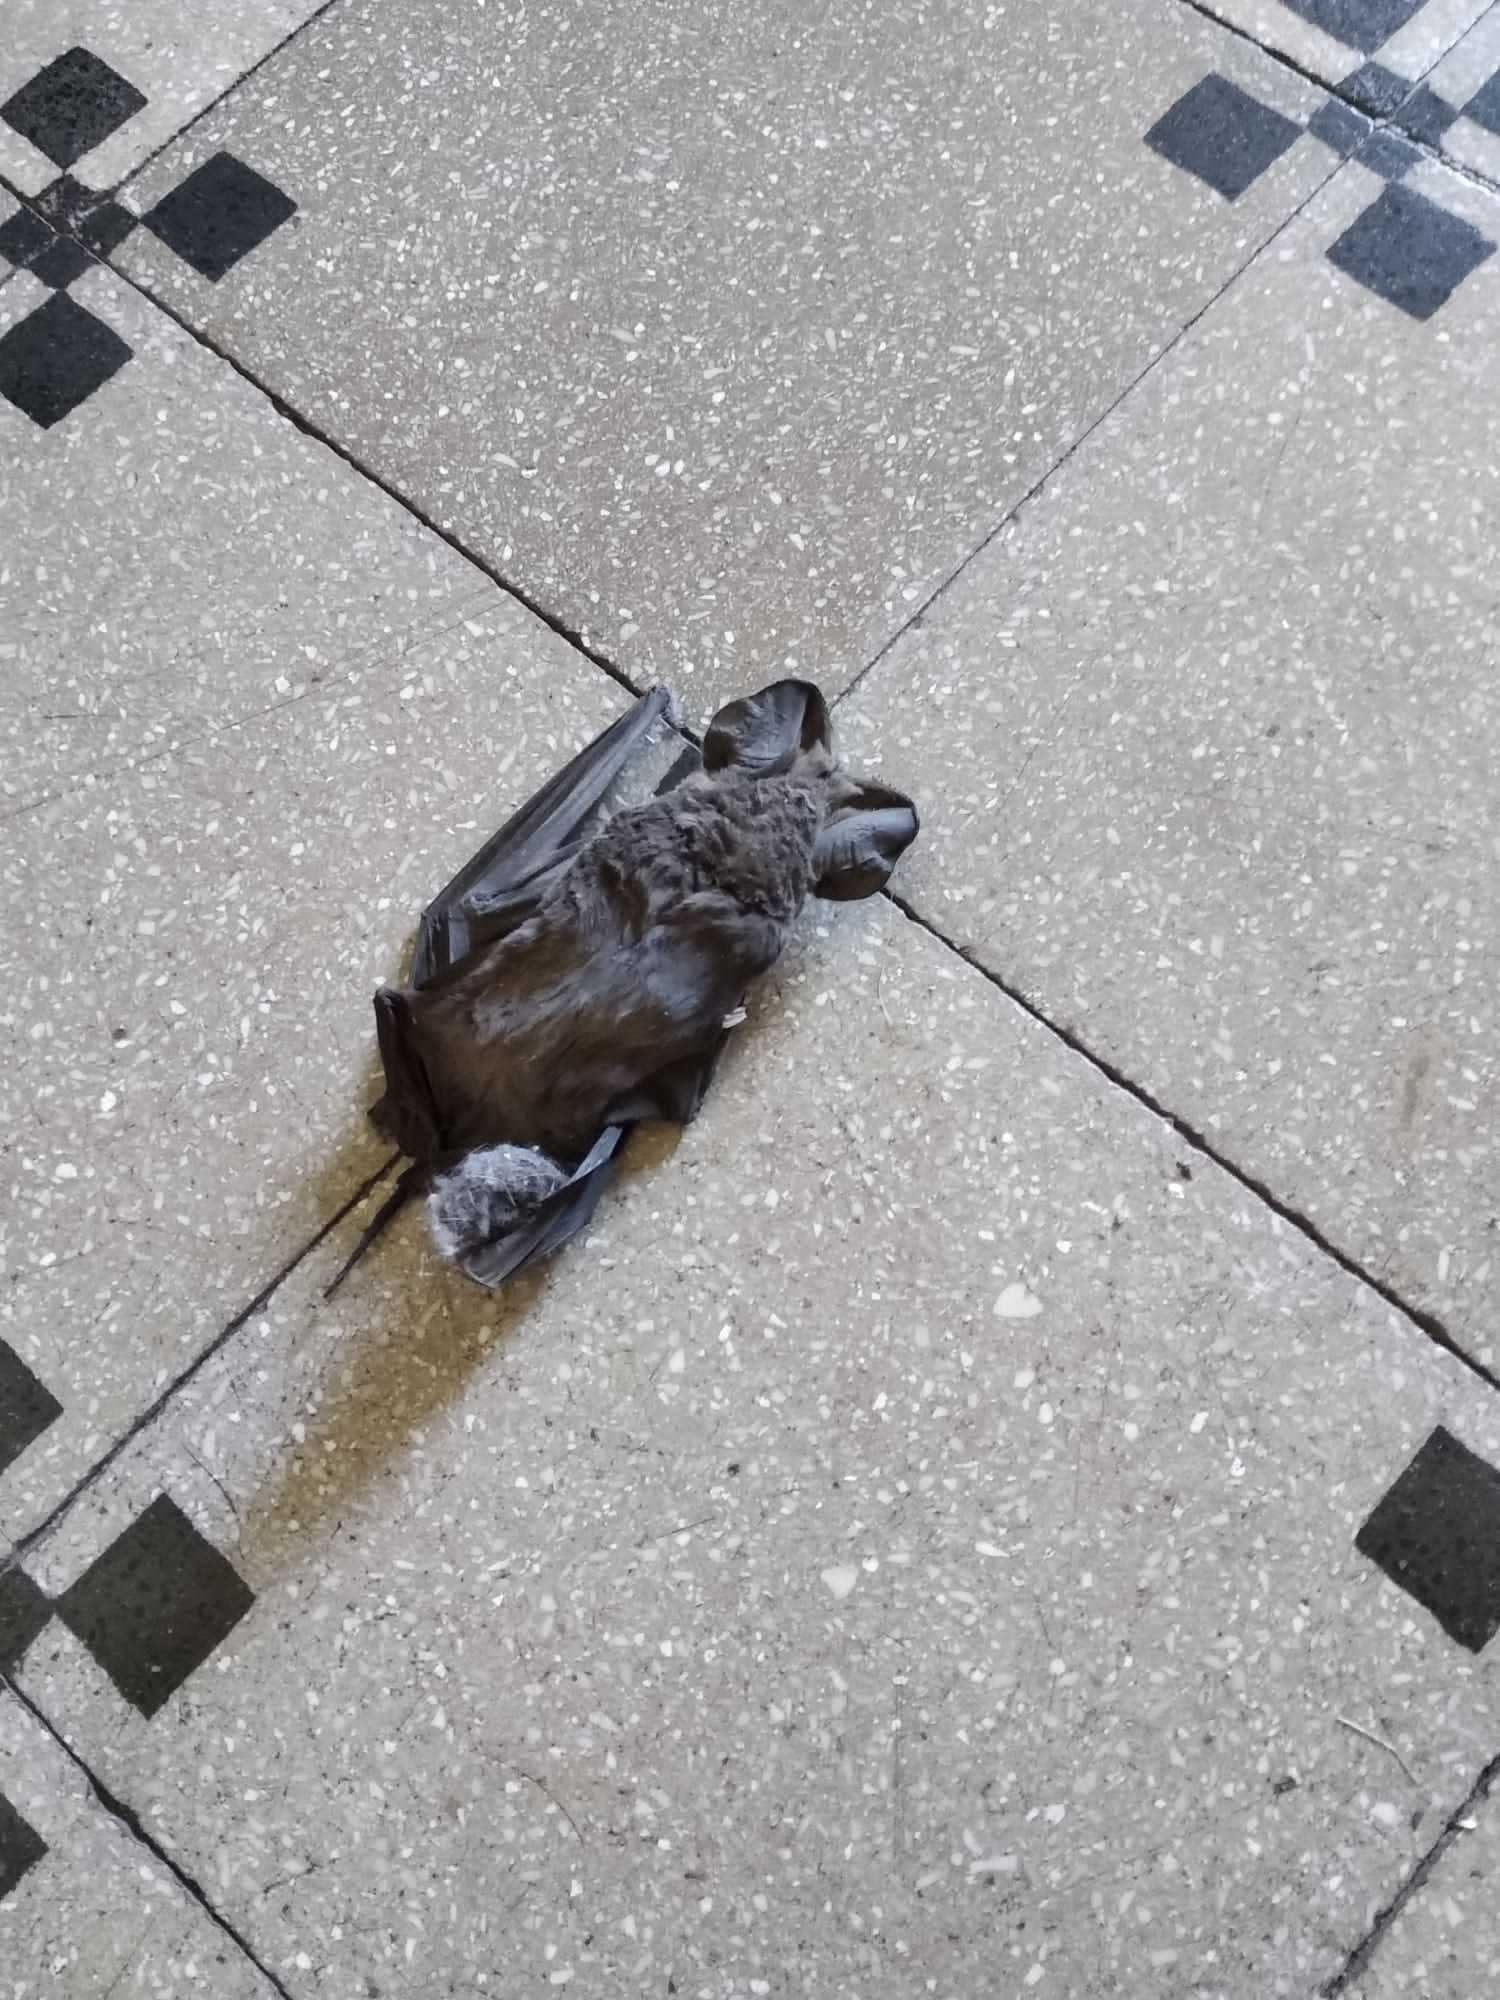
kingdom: Animalia
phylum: Chordata
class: Mammalia
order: Chiroptera
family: Molossidae
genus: Tadarida
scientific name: Tadarida teniotis
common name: European free-tailed bat
